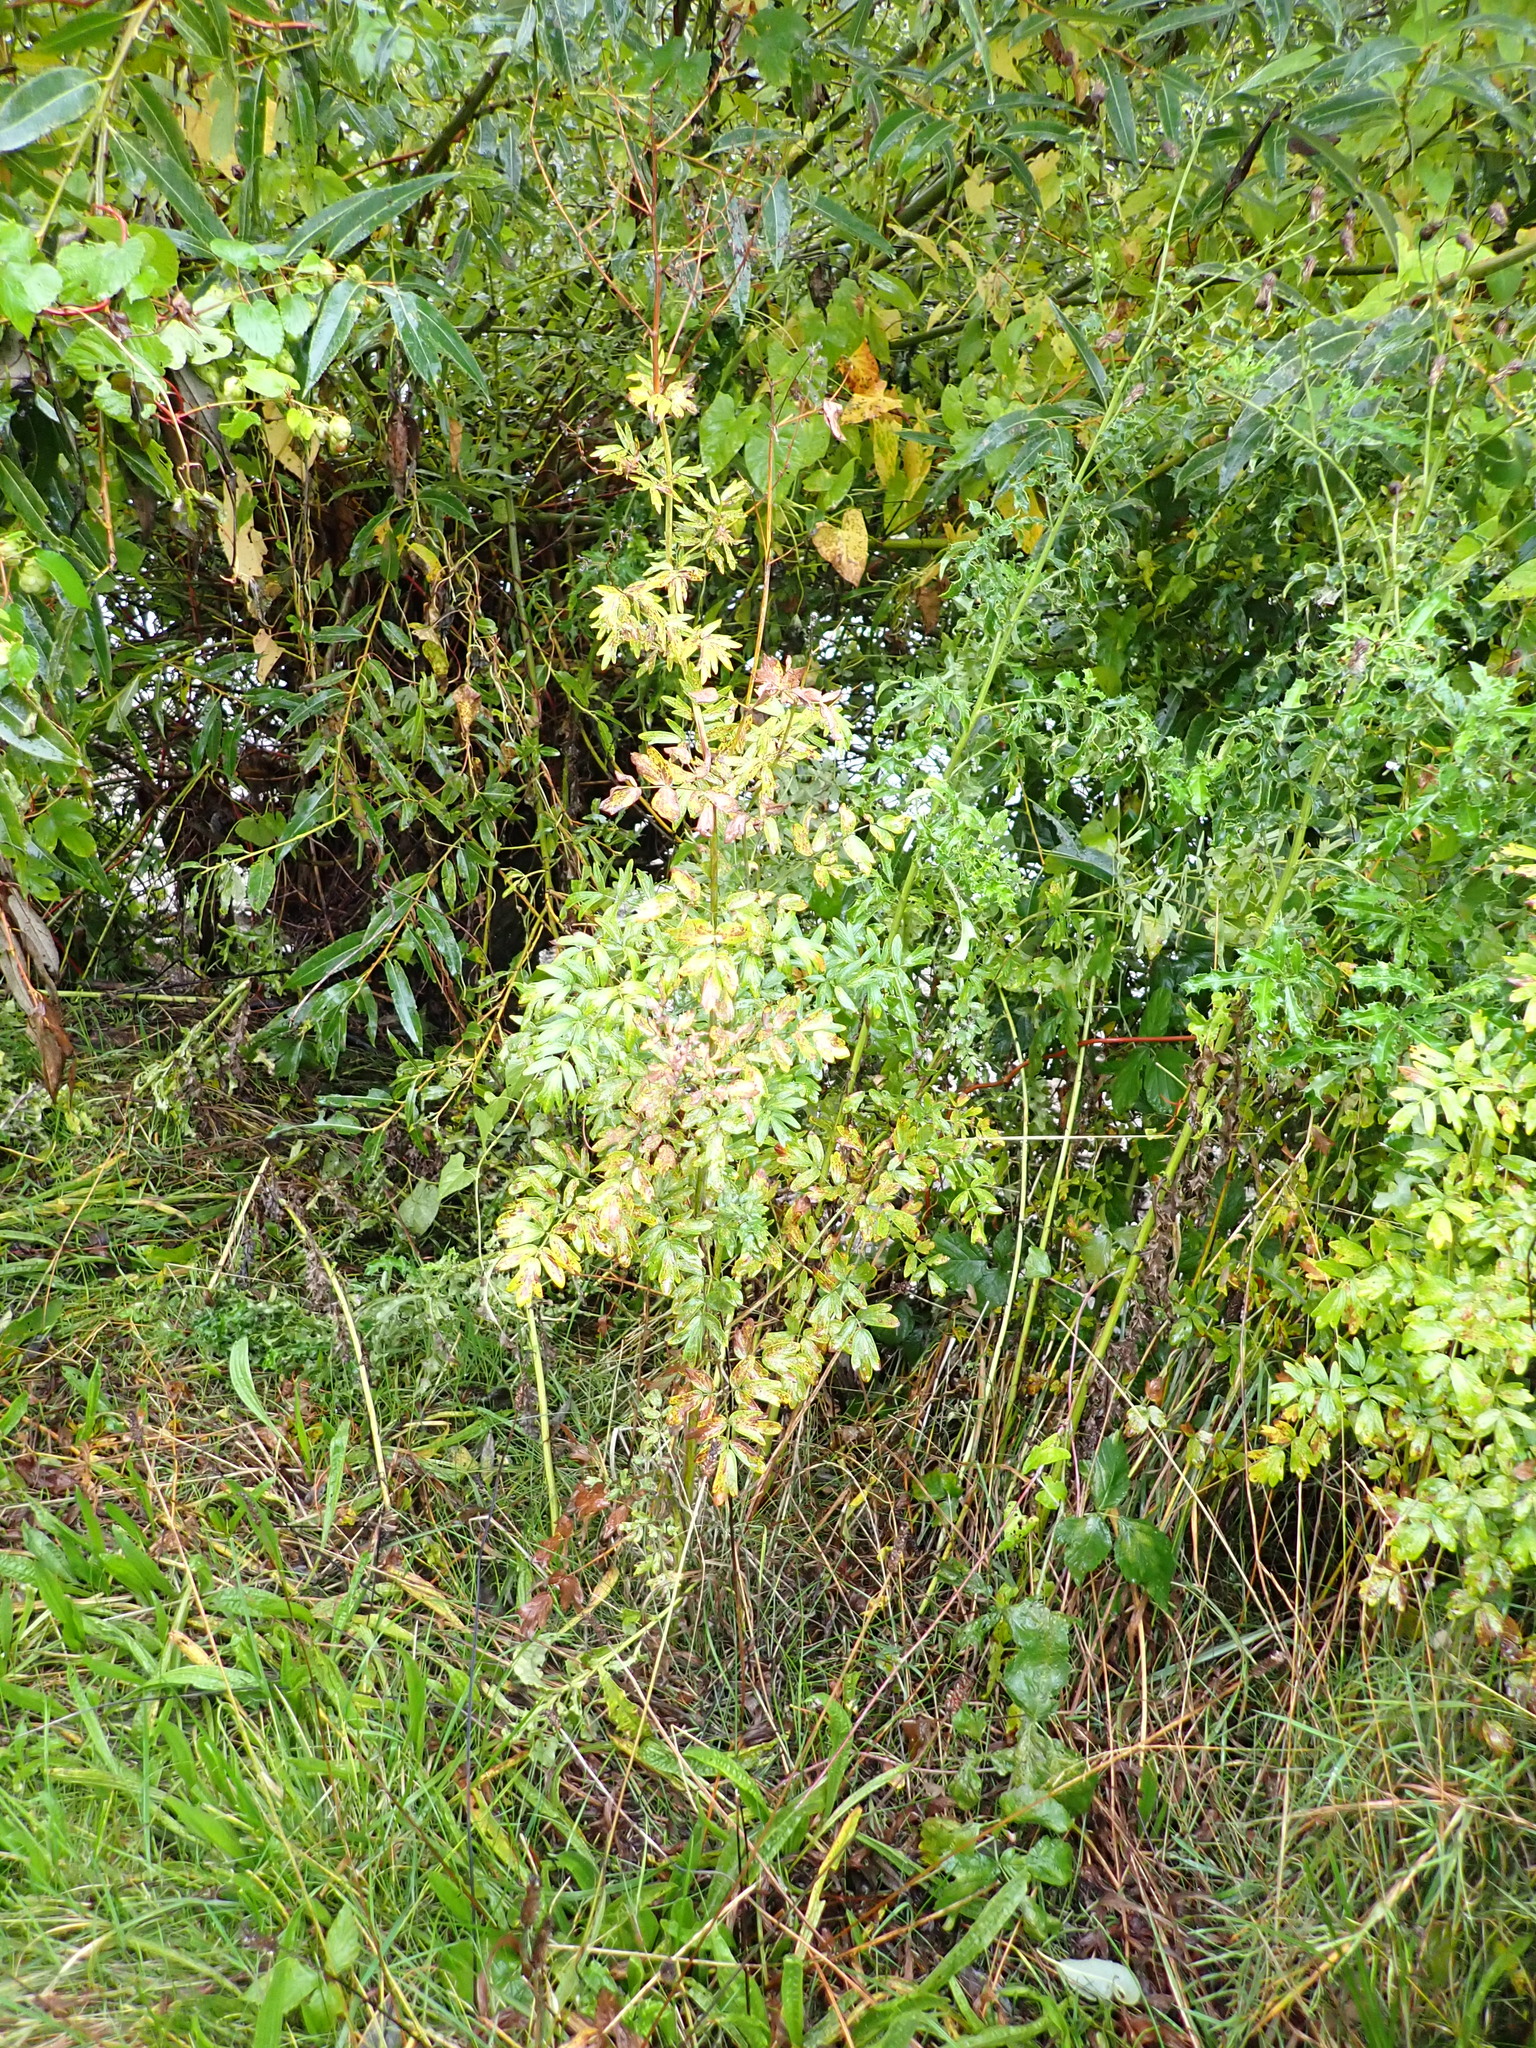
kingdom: Plantae
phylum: Tracheophyta
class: Magnoliopsida
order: Ranunculales
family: Ranunculaceae
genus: Thalictrum
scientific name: Thalictrum flavum
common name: Common meadow-rue
